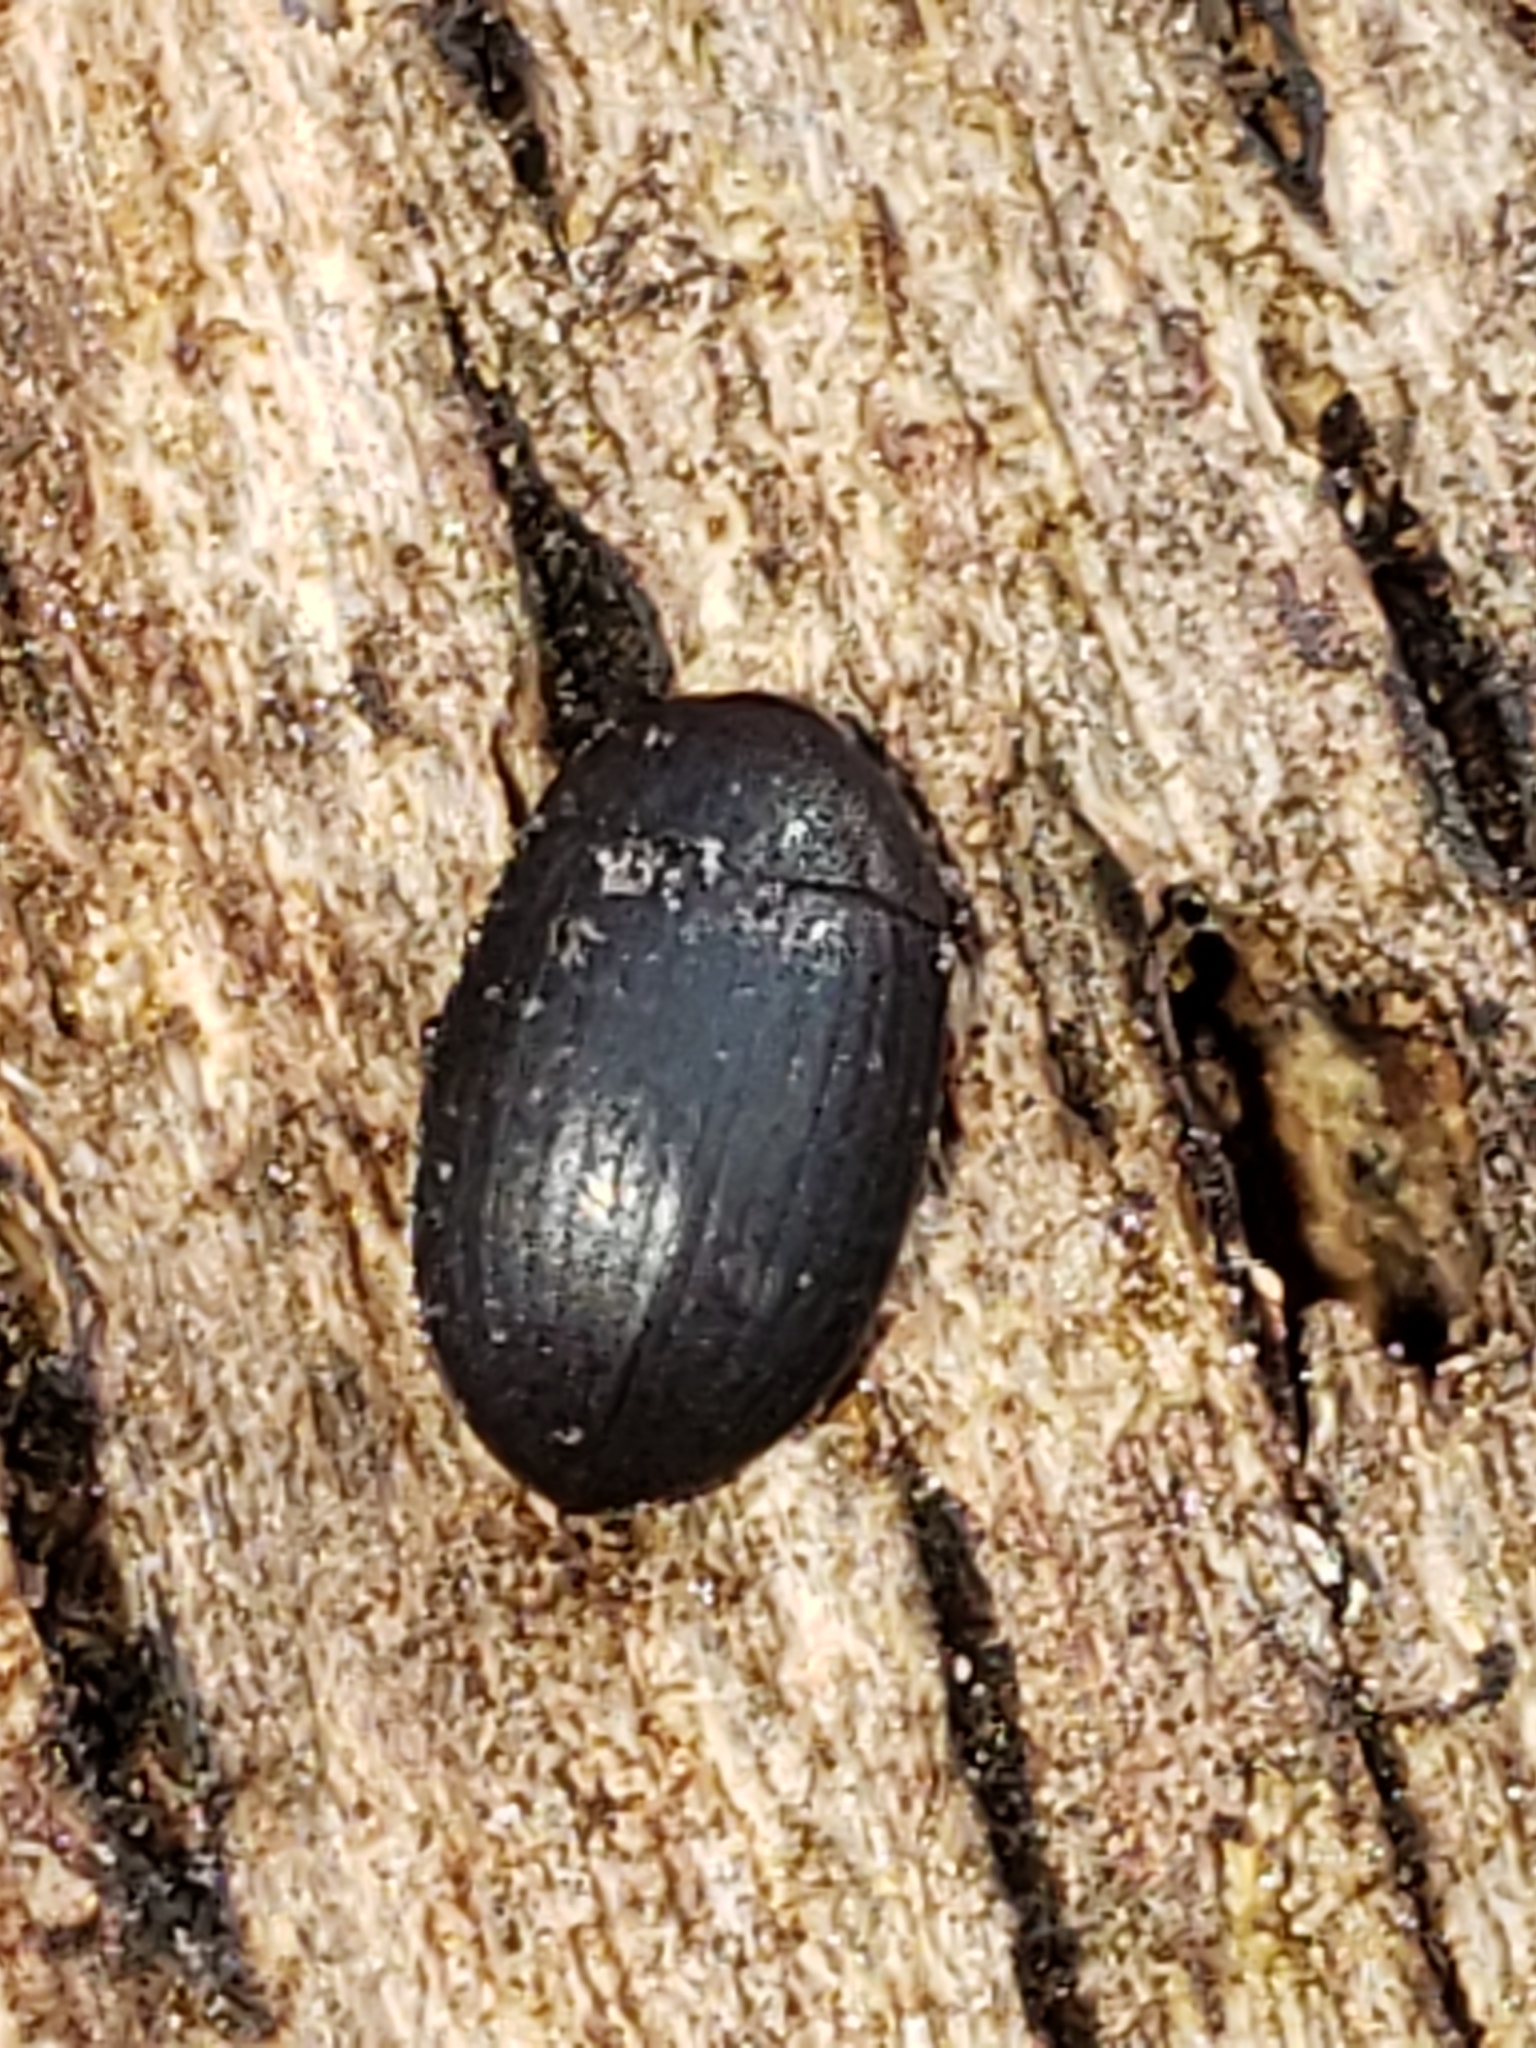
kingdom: Animalia
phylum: Arthropoda
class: Insecta
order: Coleoptera
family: Tenebrionidae
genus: Platydema
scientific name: Platydema ruficornis
